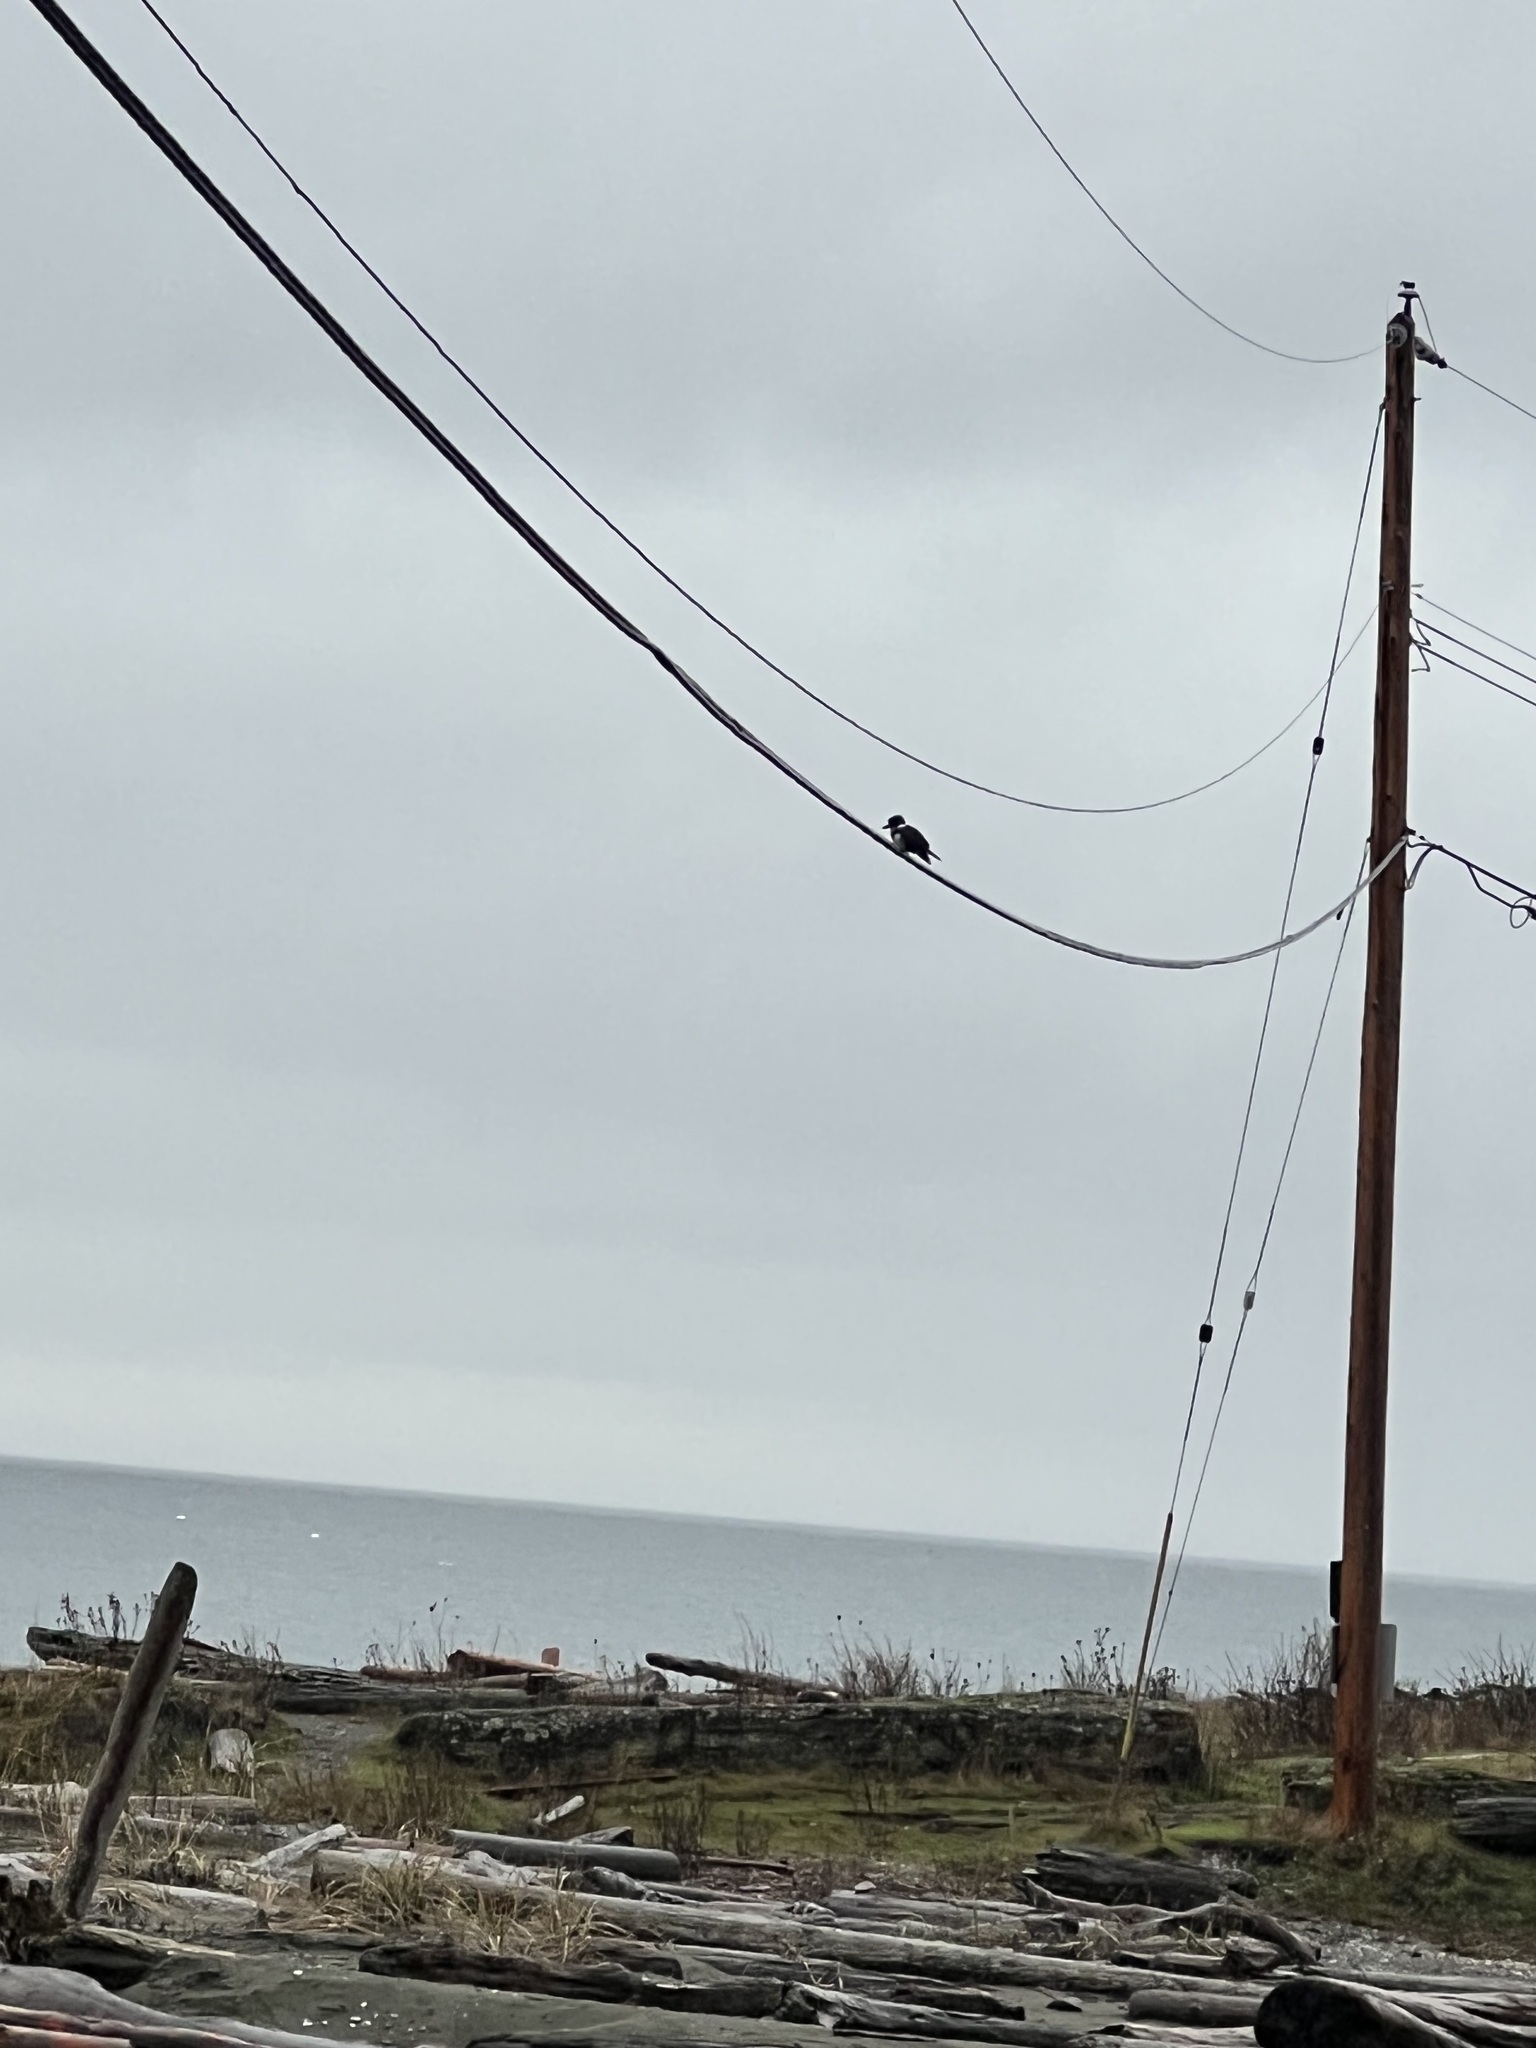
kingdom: Animalia
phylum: Chordata
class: Aves
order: Coraciiformes
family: Alcedinidae
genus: Megaceryle
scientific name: Megaceryle alcyon
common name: Belted kingfisher
